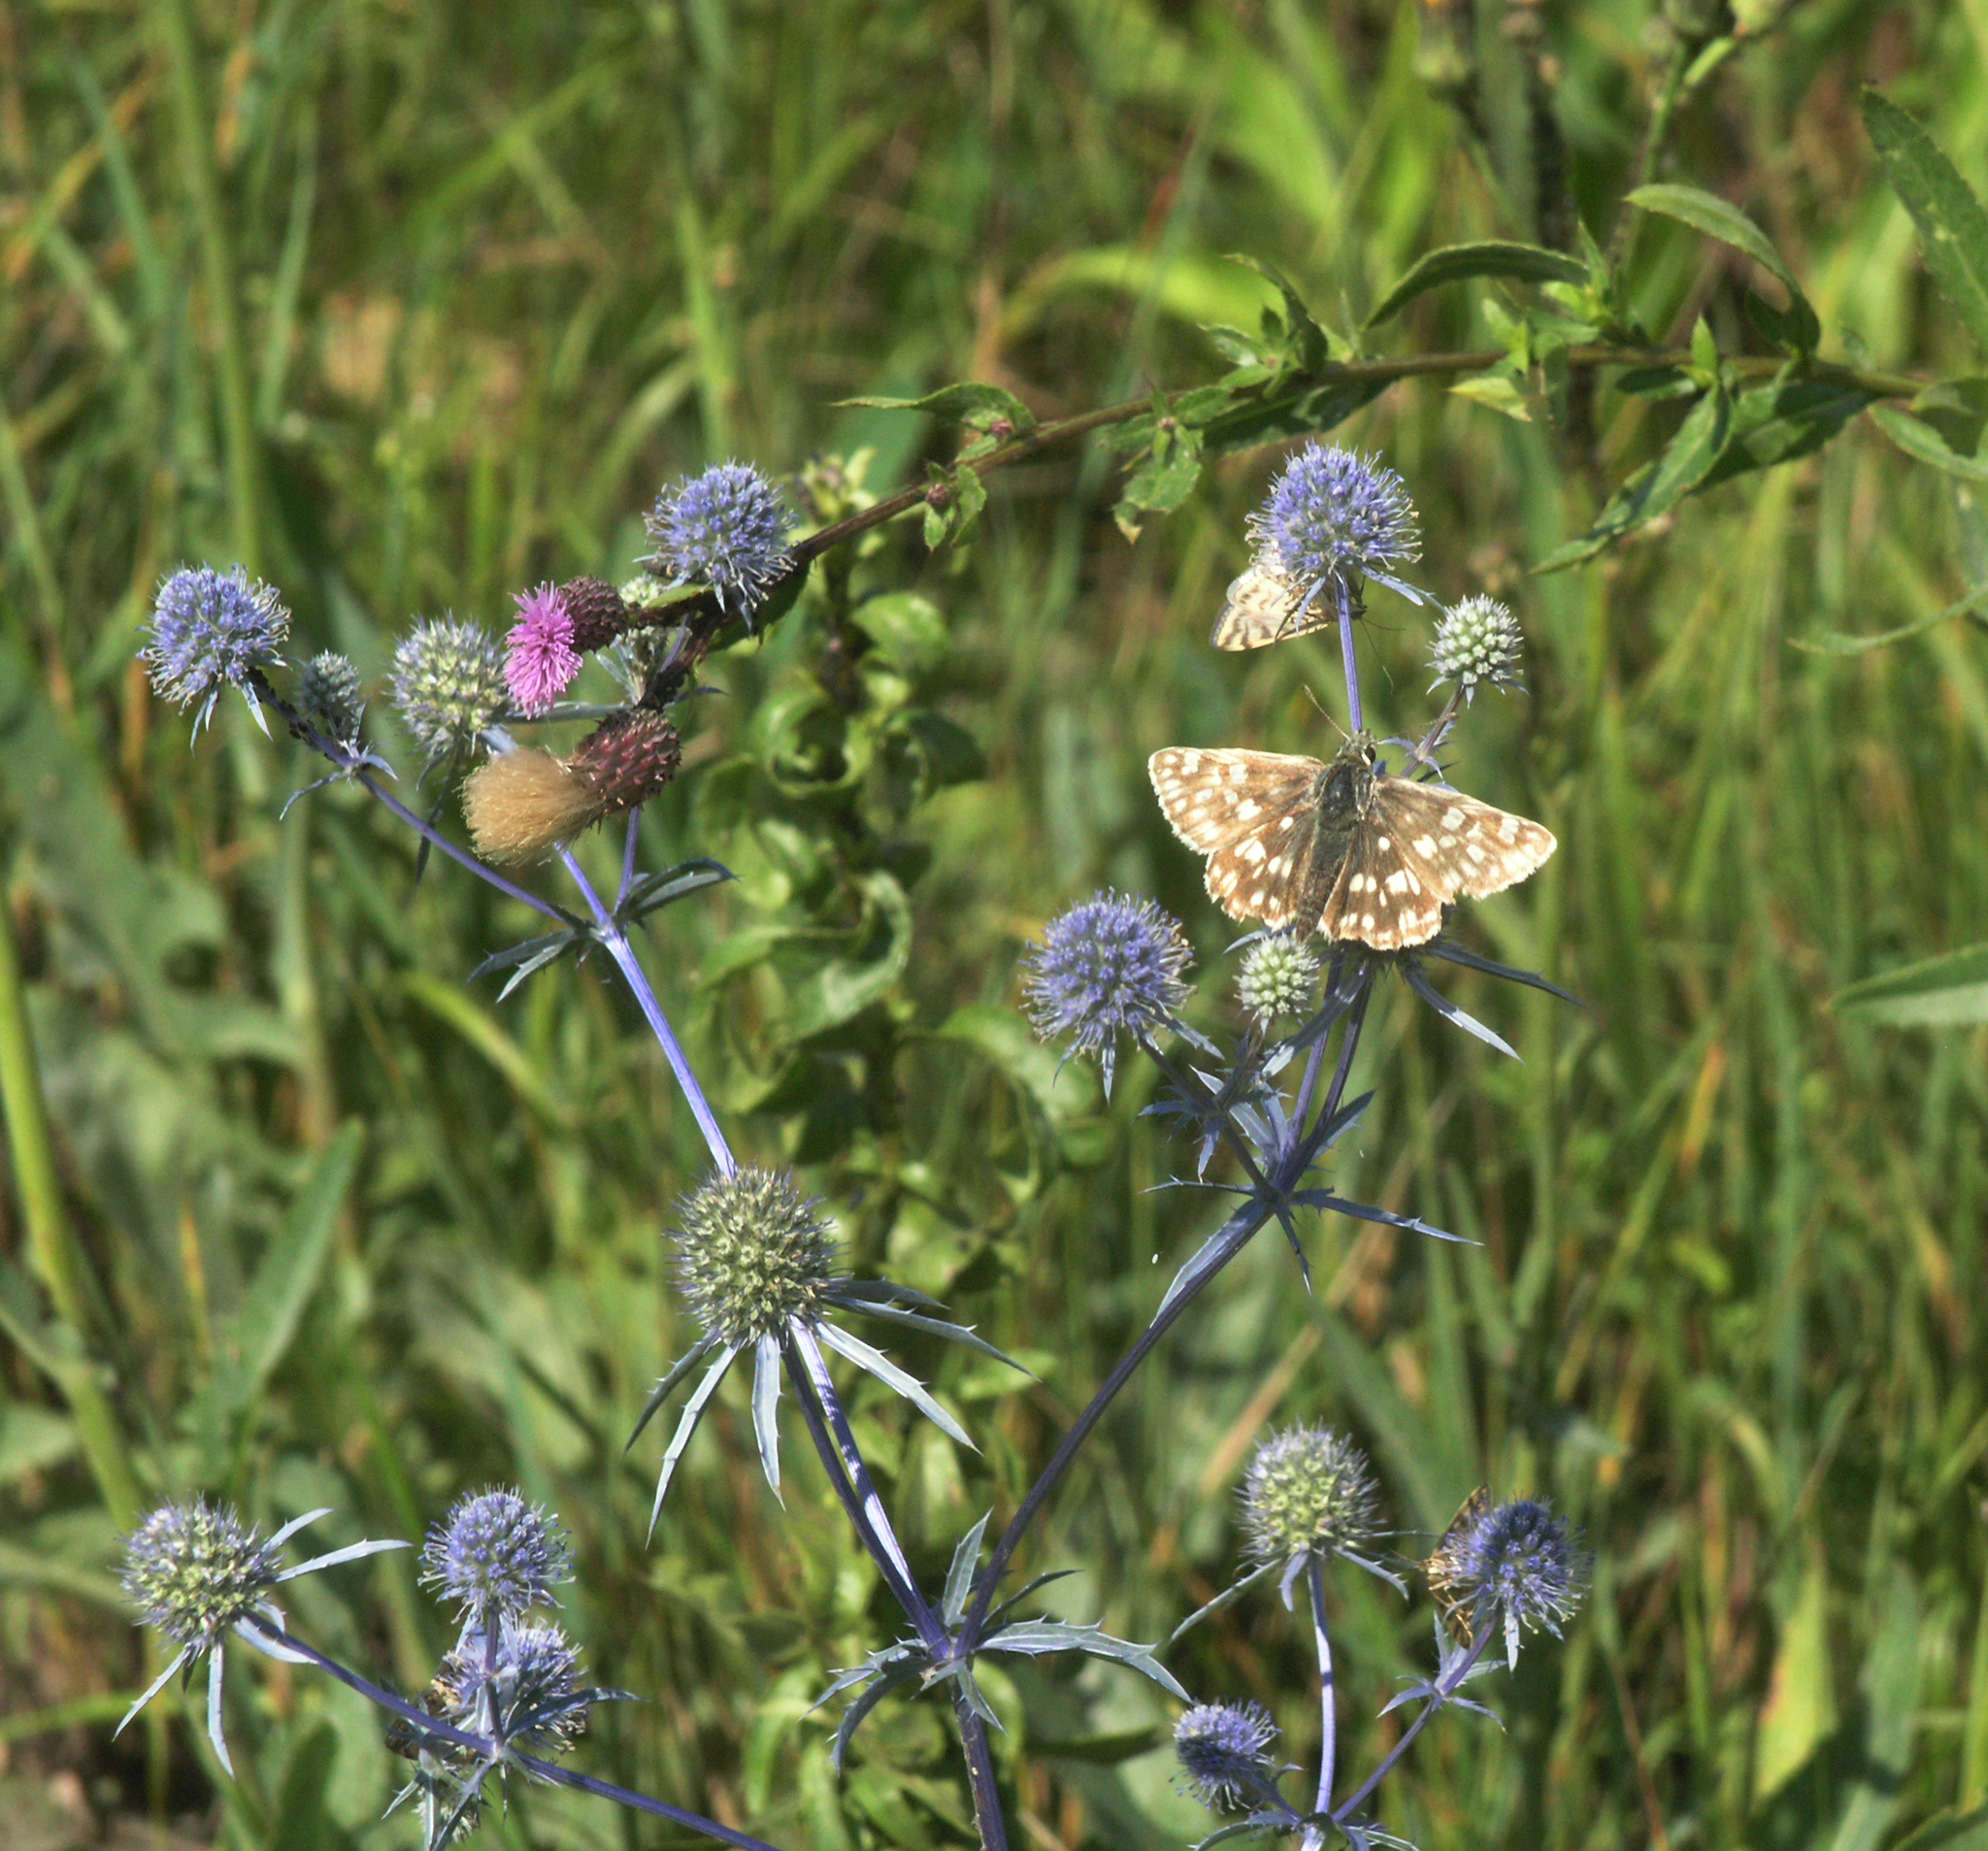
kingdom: Animalia
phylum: Arthropoda
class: Insecta
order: Lepidoptera
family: Hesperiidae
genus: Syrichtus
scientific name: Syrichtus tessellum
